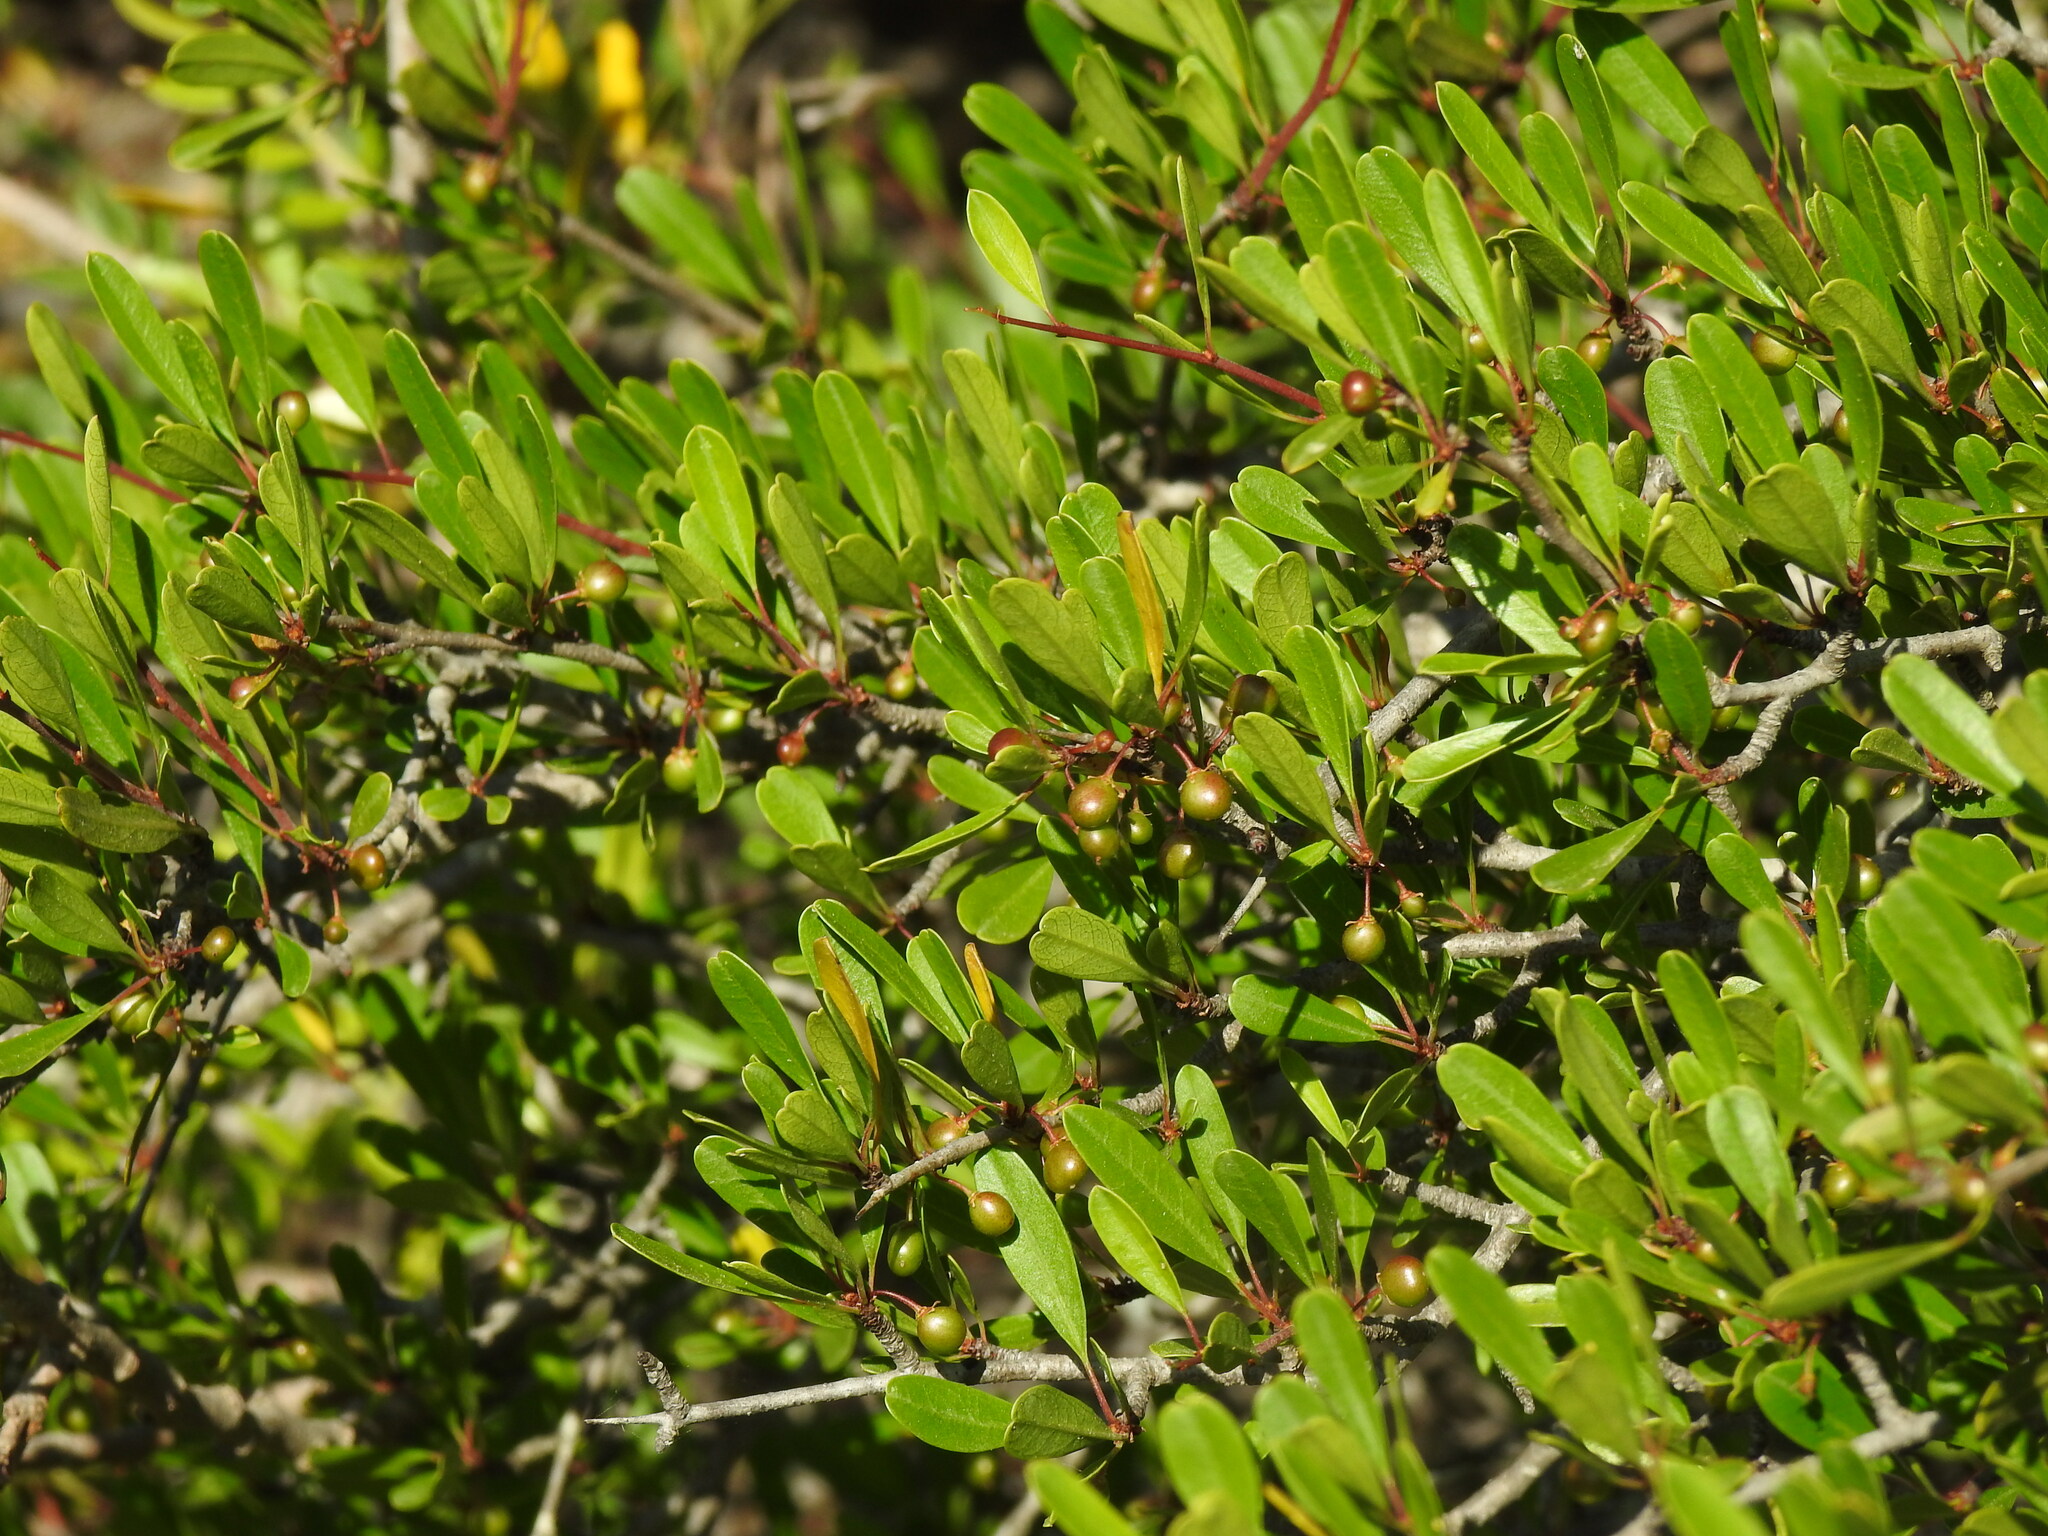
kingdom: Plantae
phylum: Tracheophyta
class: Magnoliopsida
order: Rosales
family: Rhamnaceae
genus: Rhamnus
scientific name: Rhamnus oleoides
